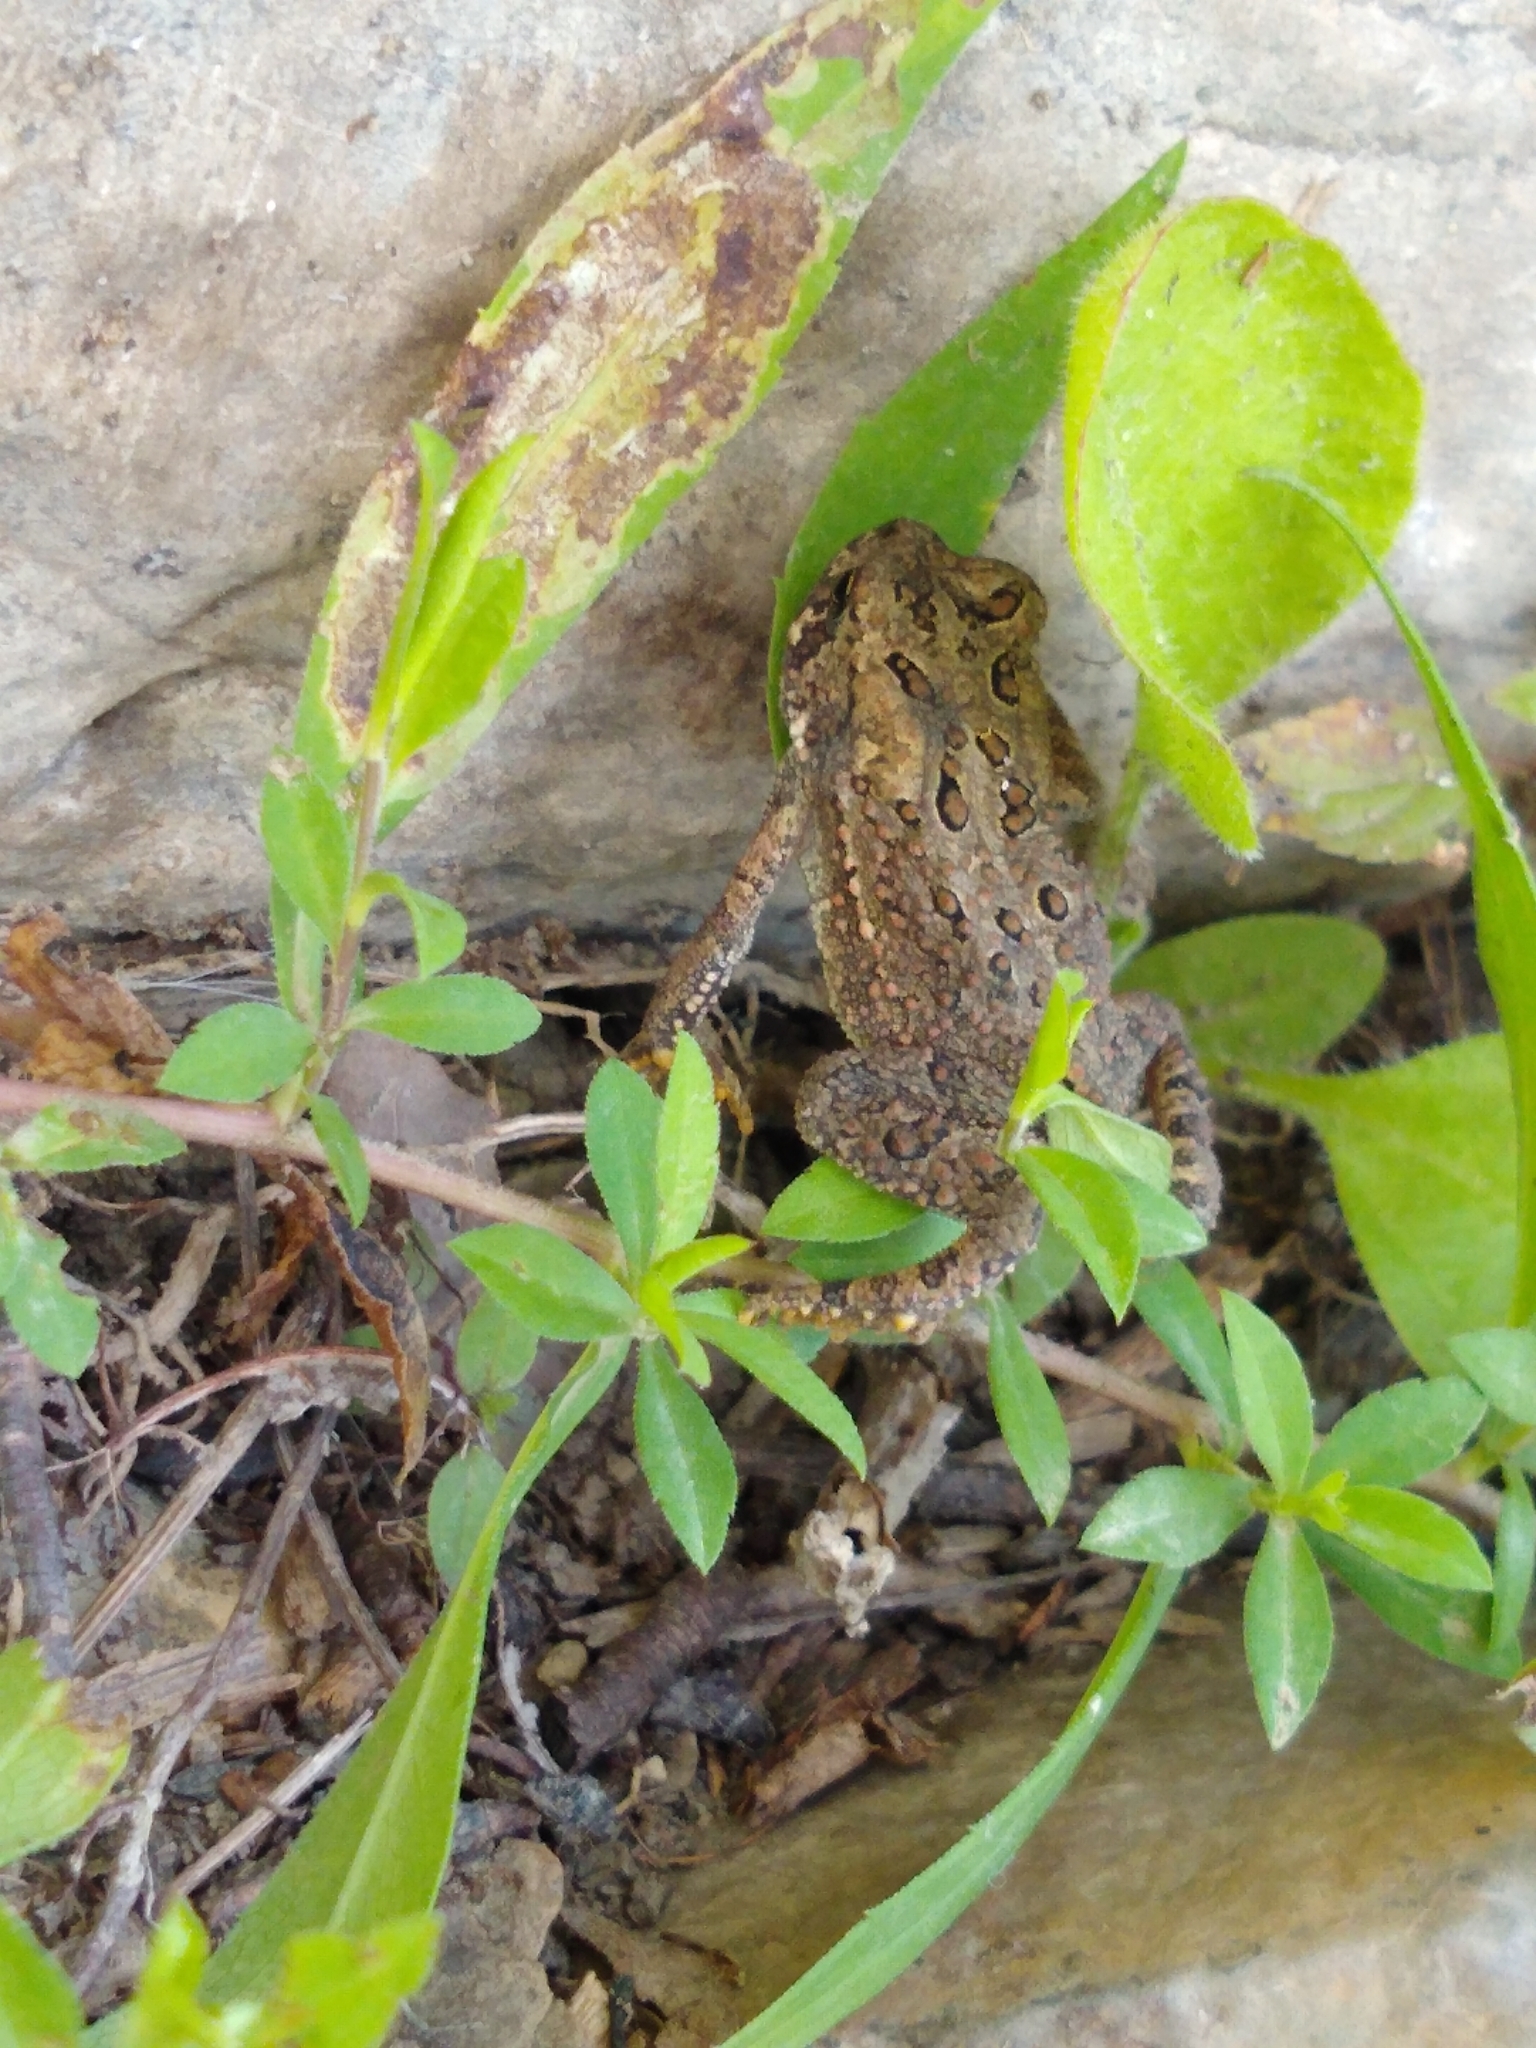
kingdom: Animalia
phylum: Chordata
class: Amphibia
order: Anura
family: Bufonidae
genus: Anaxyrus
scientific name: Anaxyrus americanus
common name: American toad
